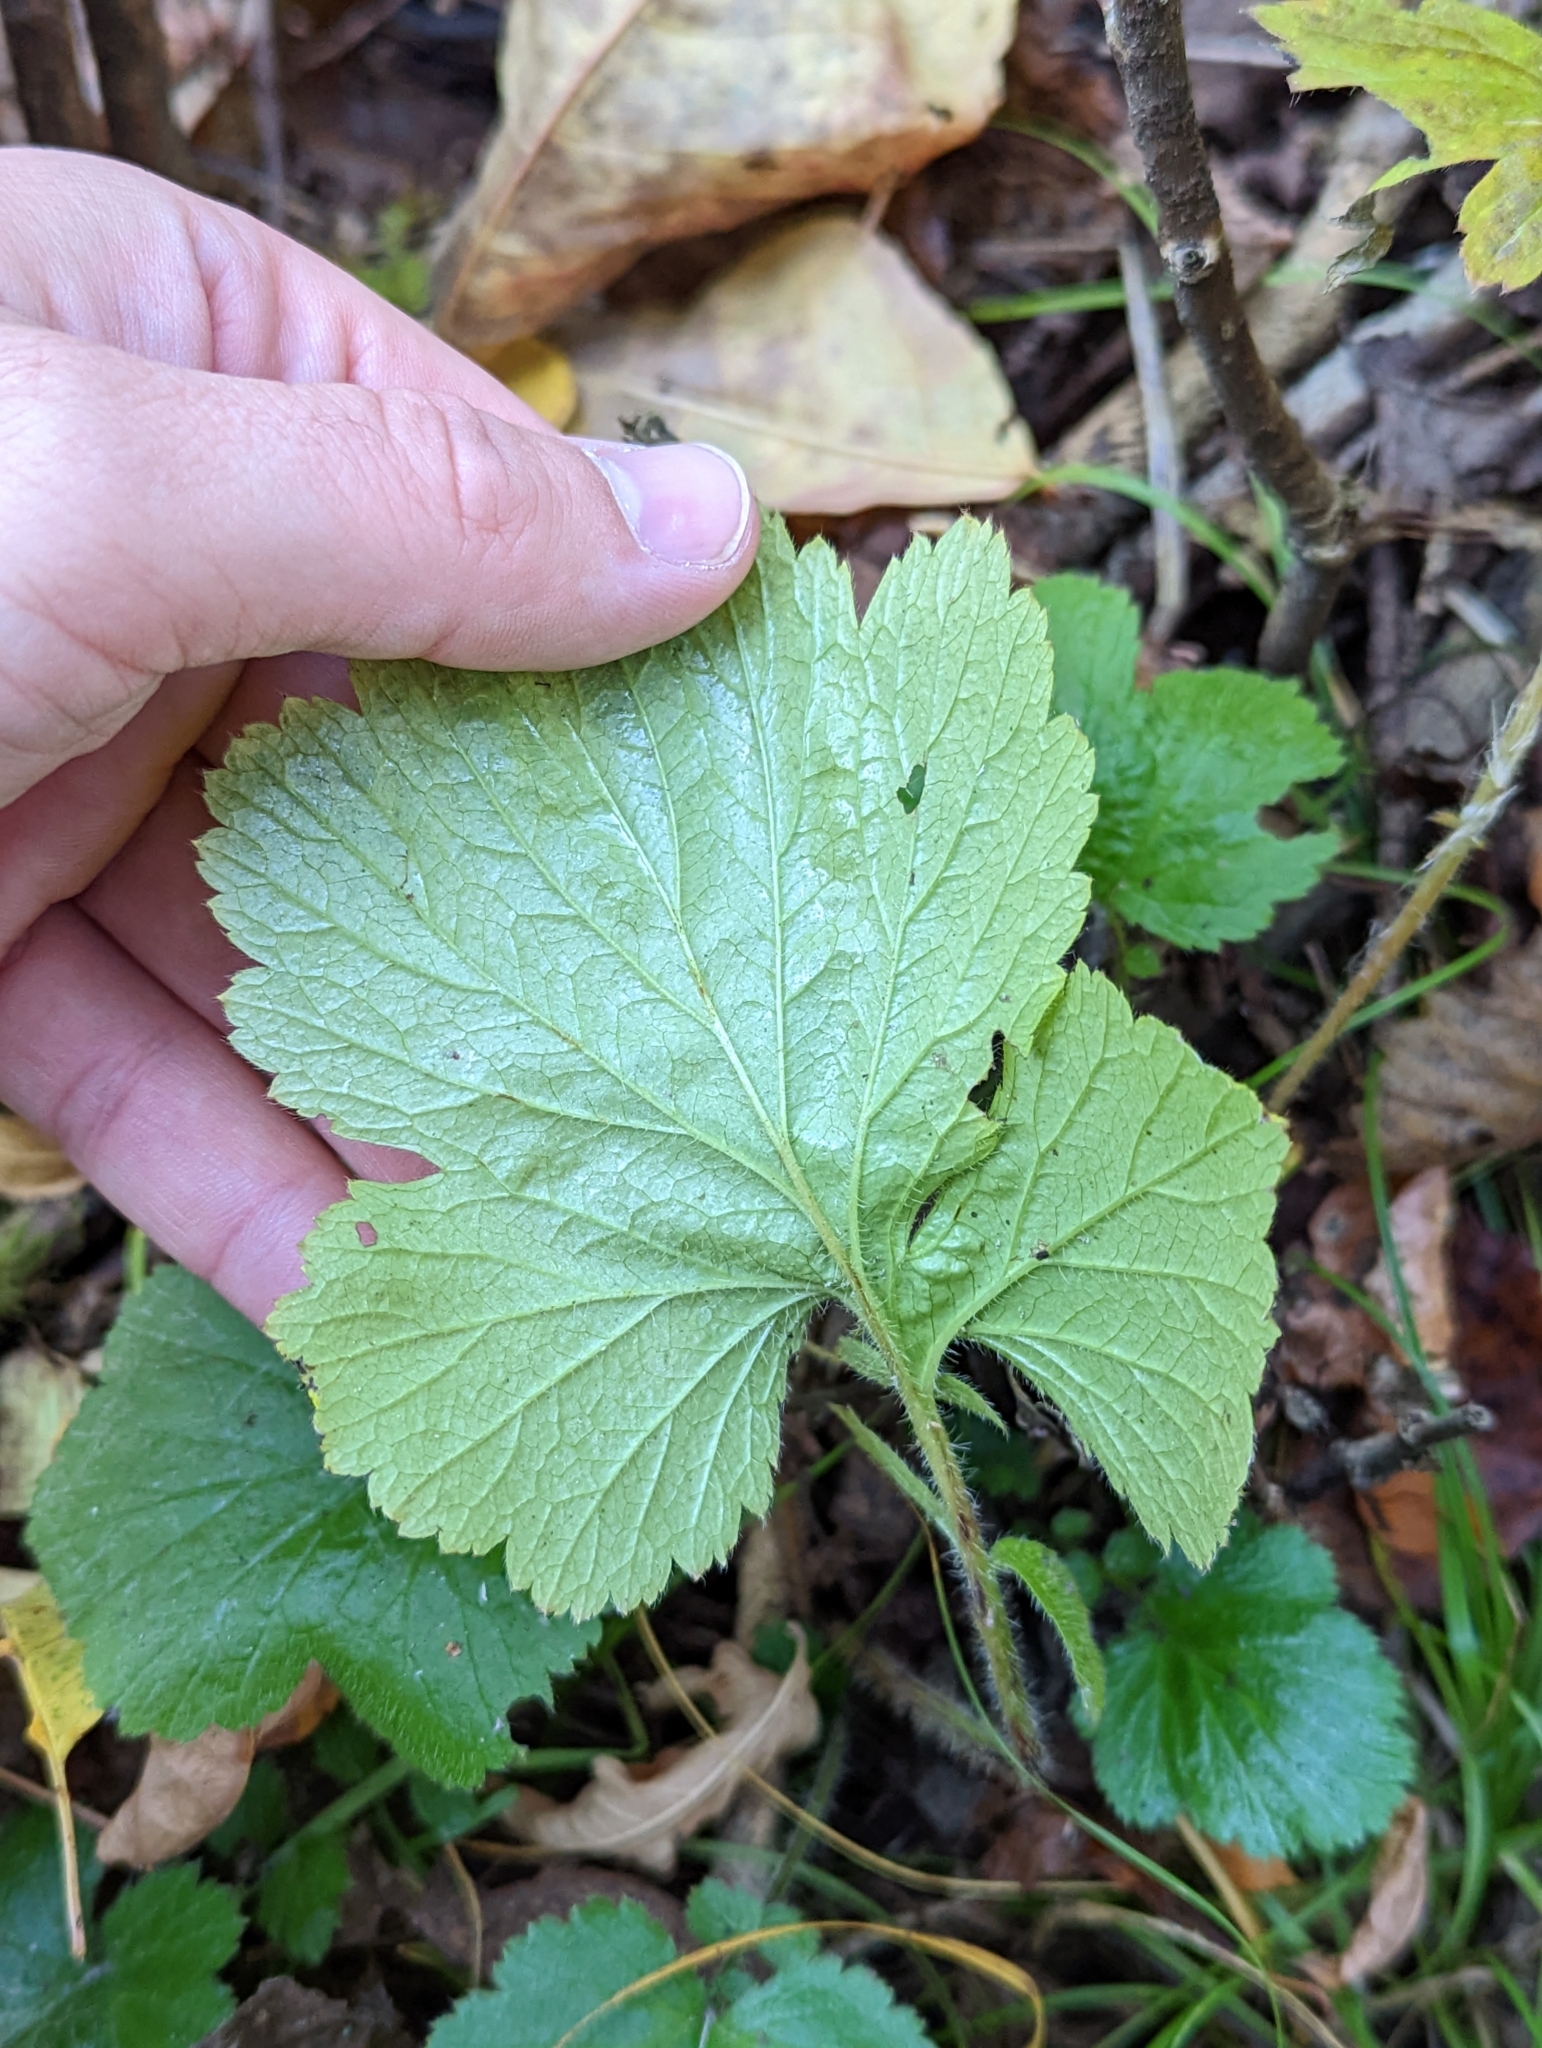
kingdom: Plantae
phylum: Tracheophyta
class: Magnoliopsida
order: Rosales
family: Rosaceae
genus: Geum
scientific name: Geum macrophyllum
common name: Large-leaved avens
